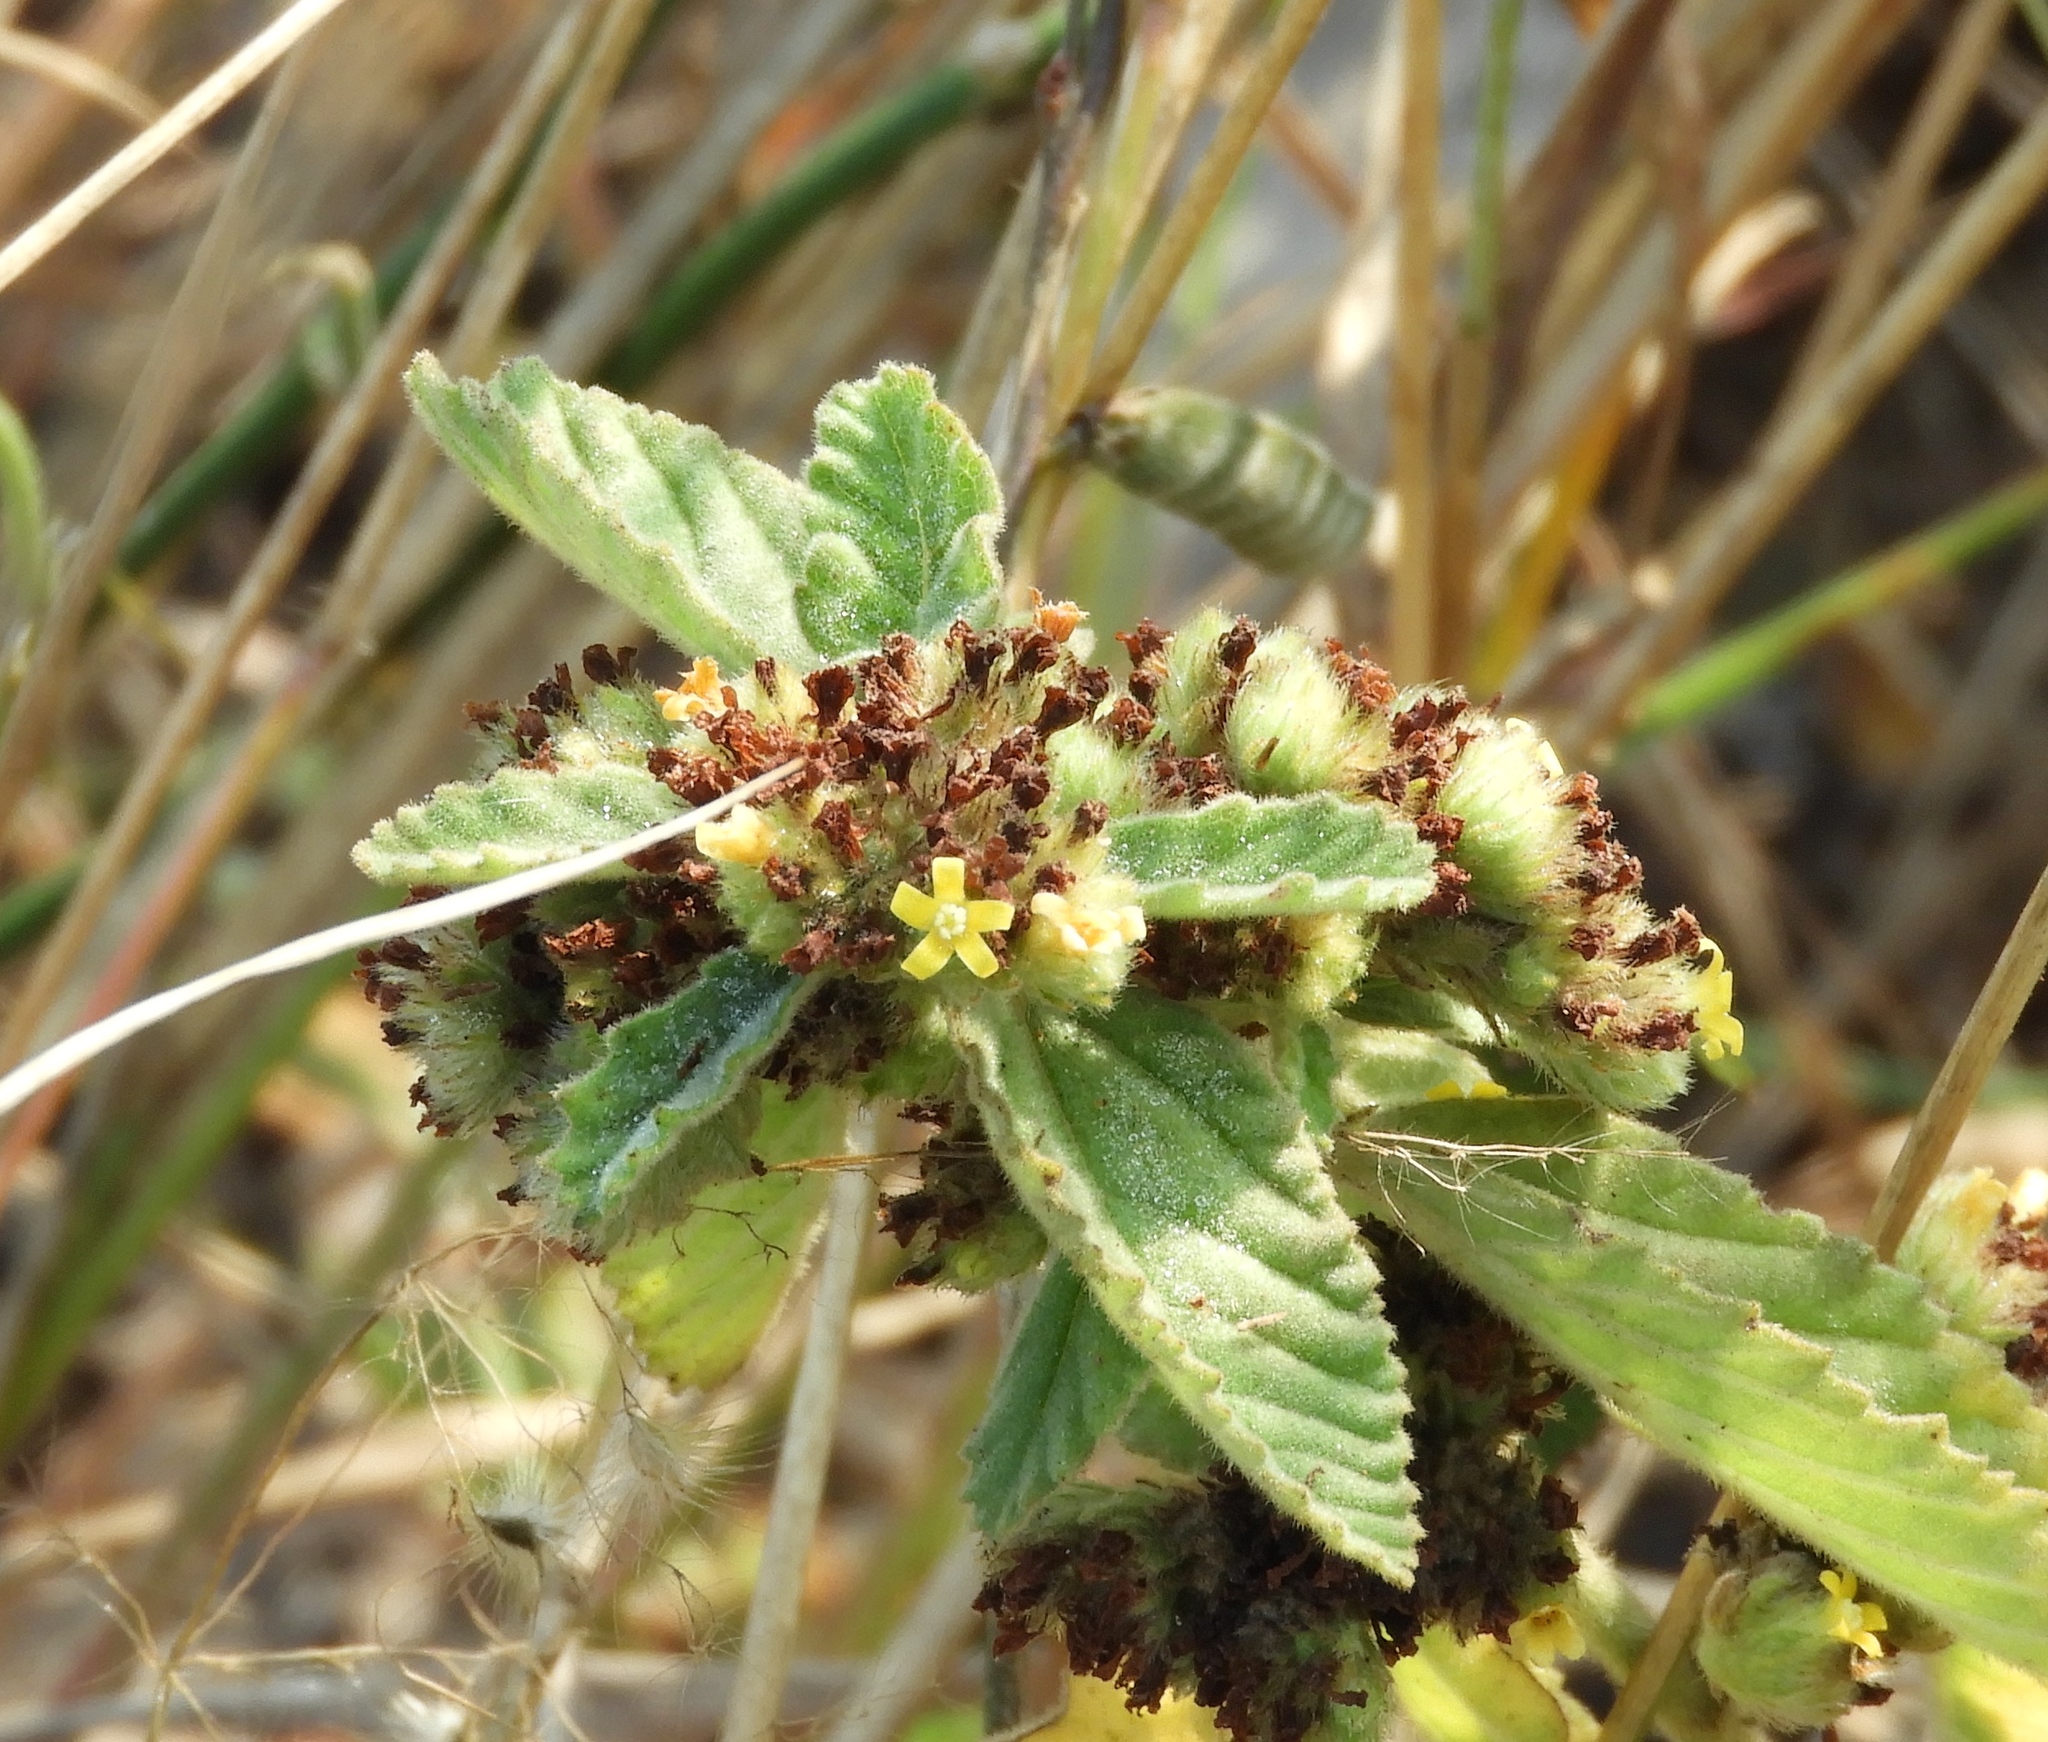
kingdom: Plantae
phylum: Tracheophyta
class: Magnoliopsida
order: Malvales
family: Malvaceae
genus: Waltheria
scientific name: Waltheria indica
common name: Leather-coat
